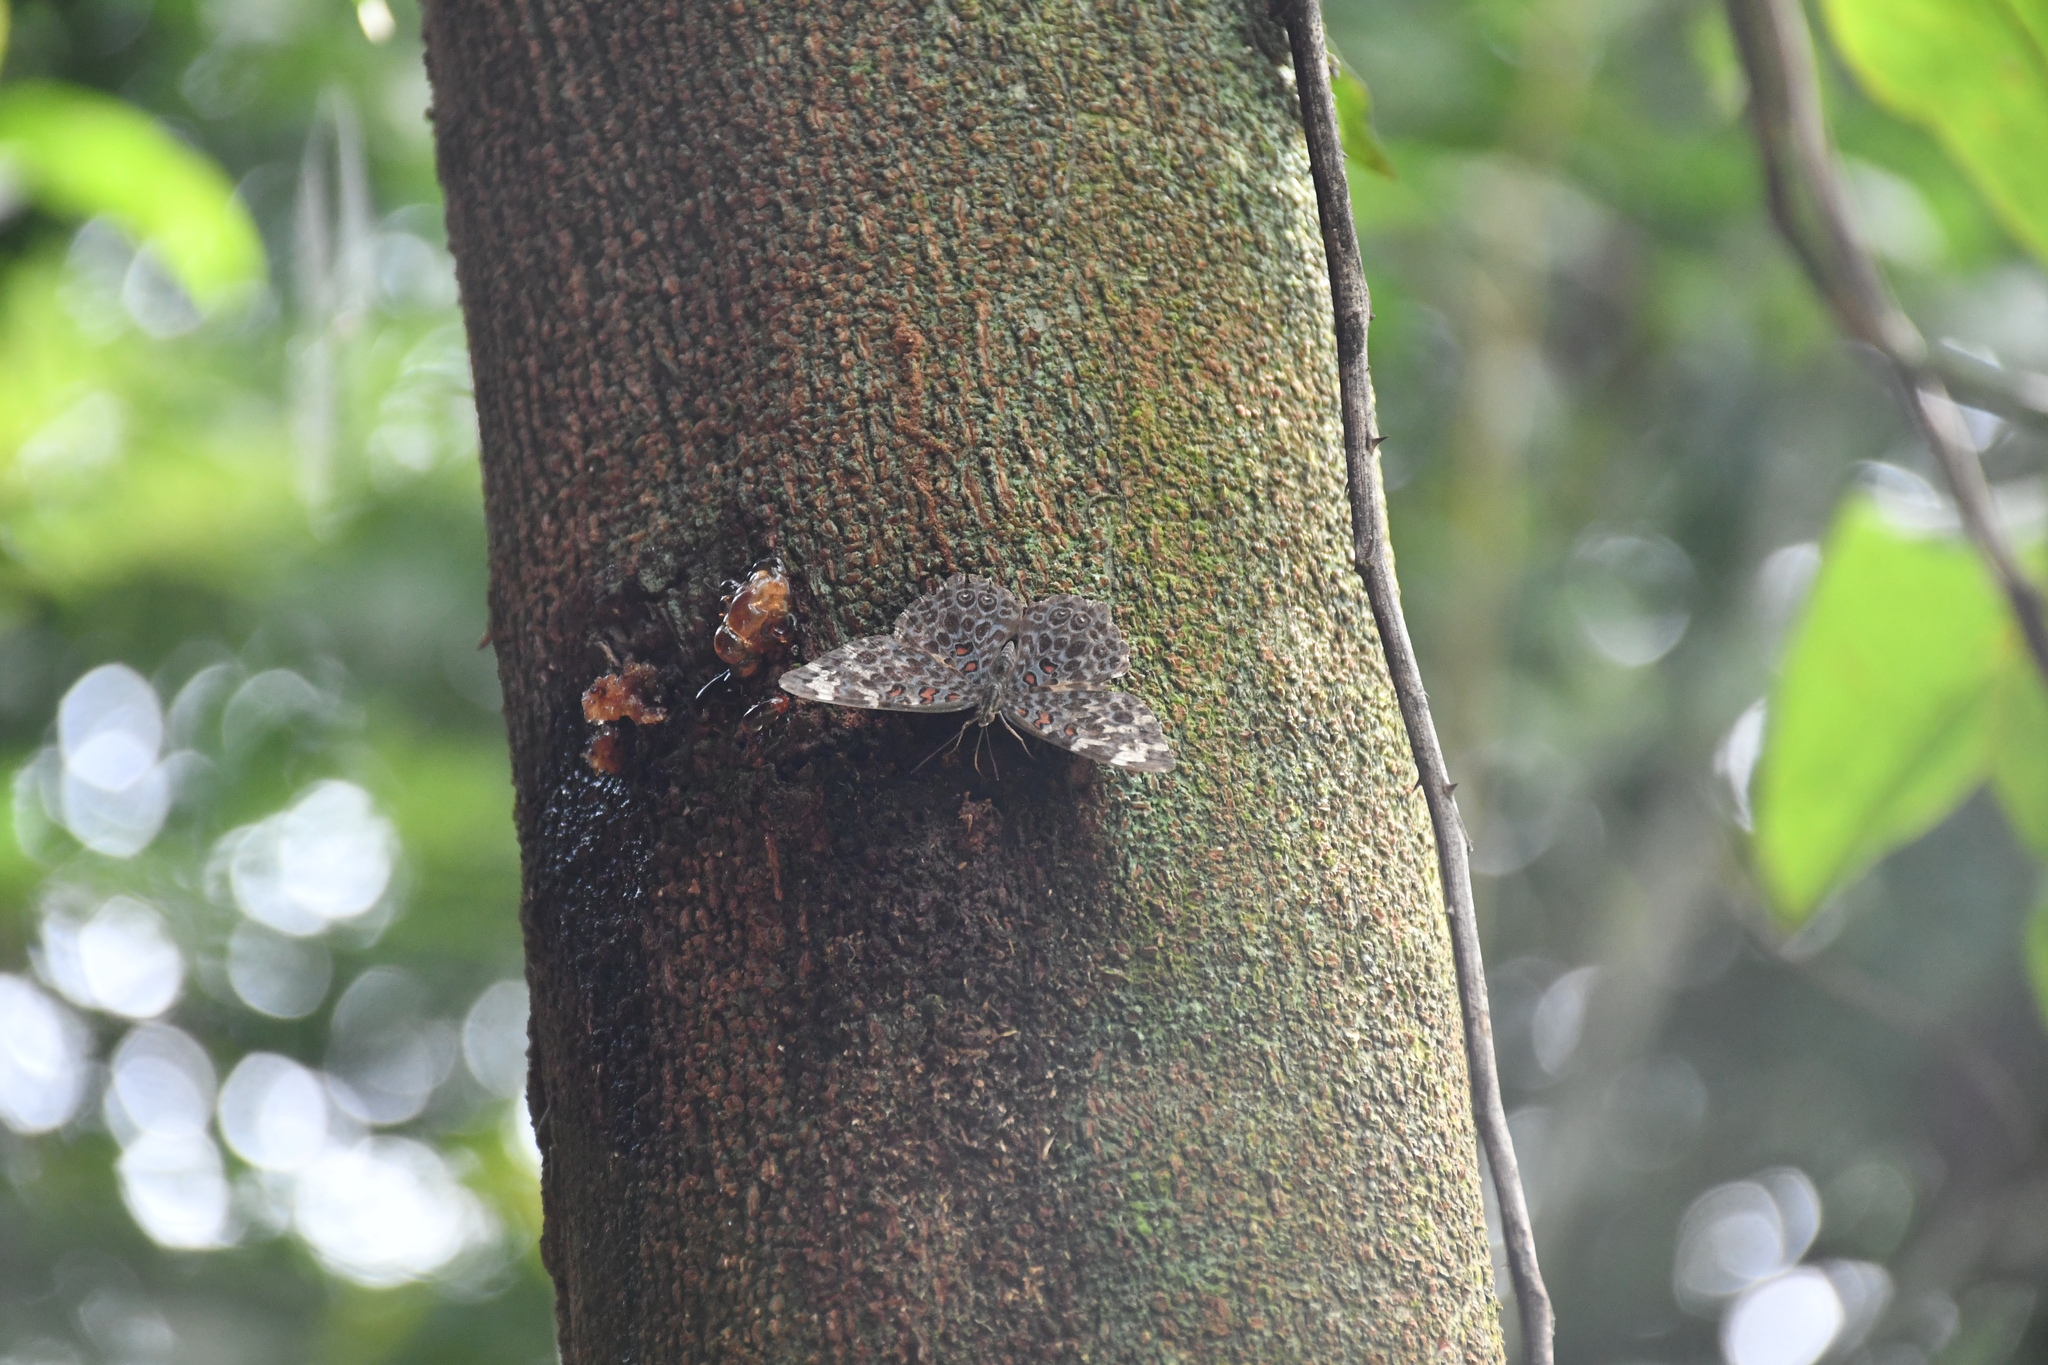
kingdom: Animalia
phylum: Arthropoda
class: Insecta
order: Lepidoptera
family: Nymphalidae
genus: Hamadryas
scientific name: Hamadryas chloe
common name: Amazon cracker
